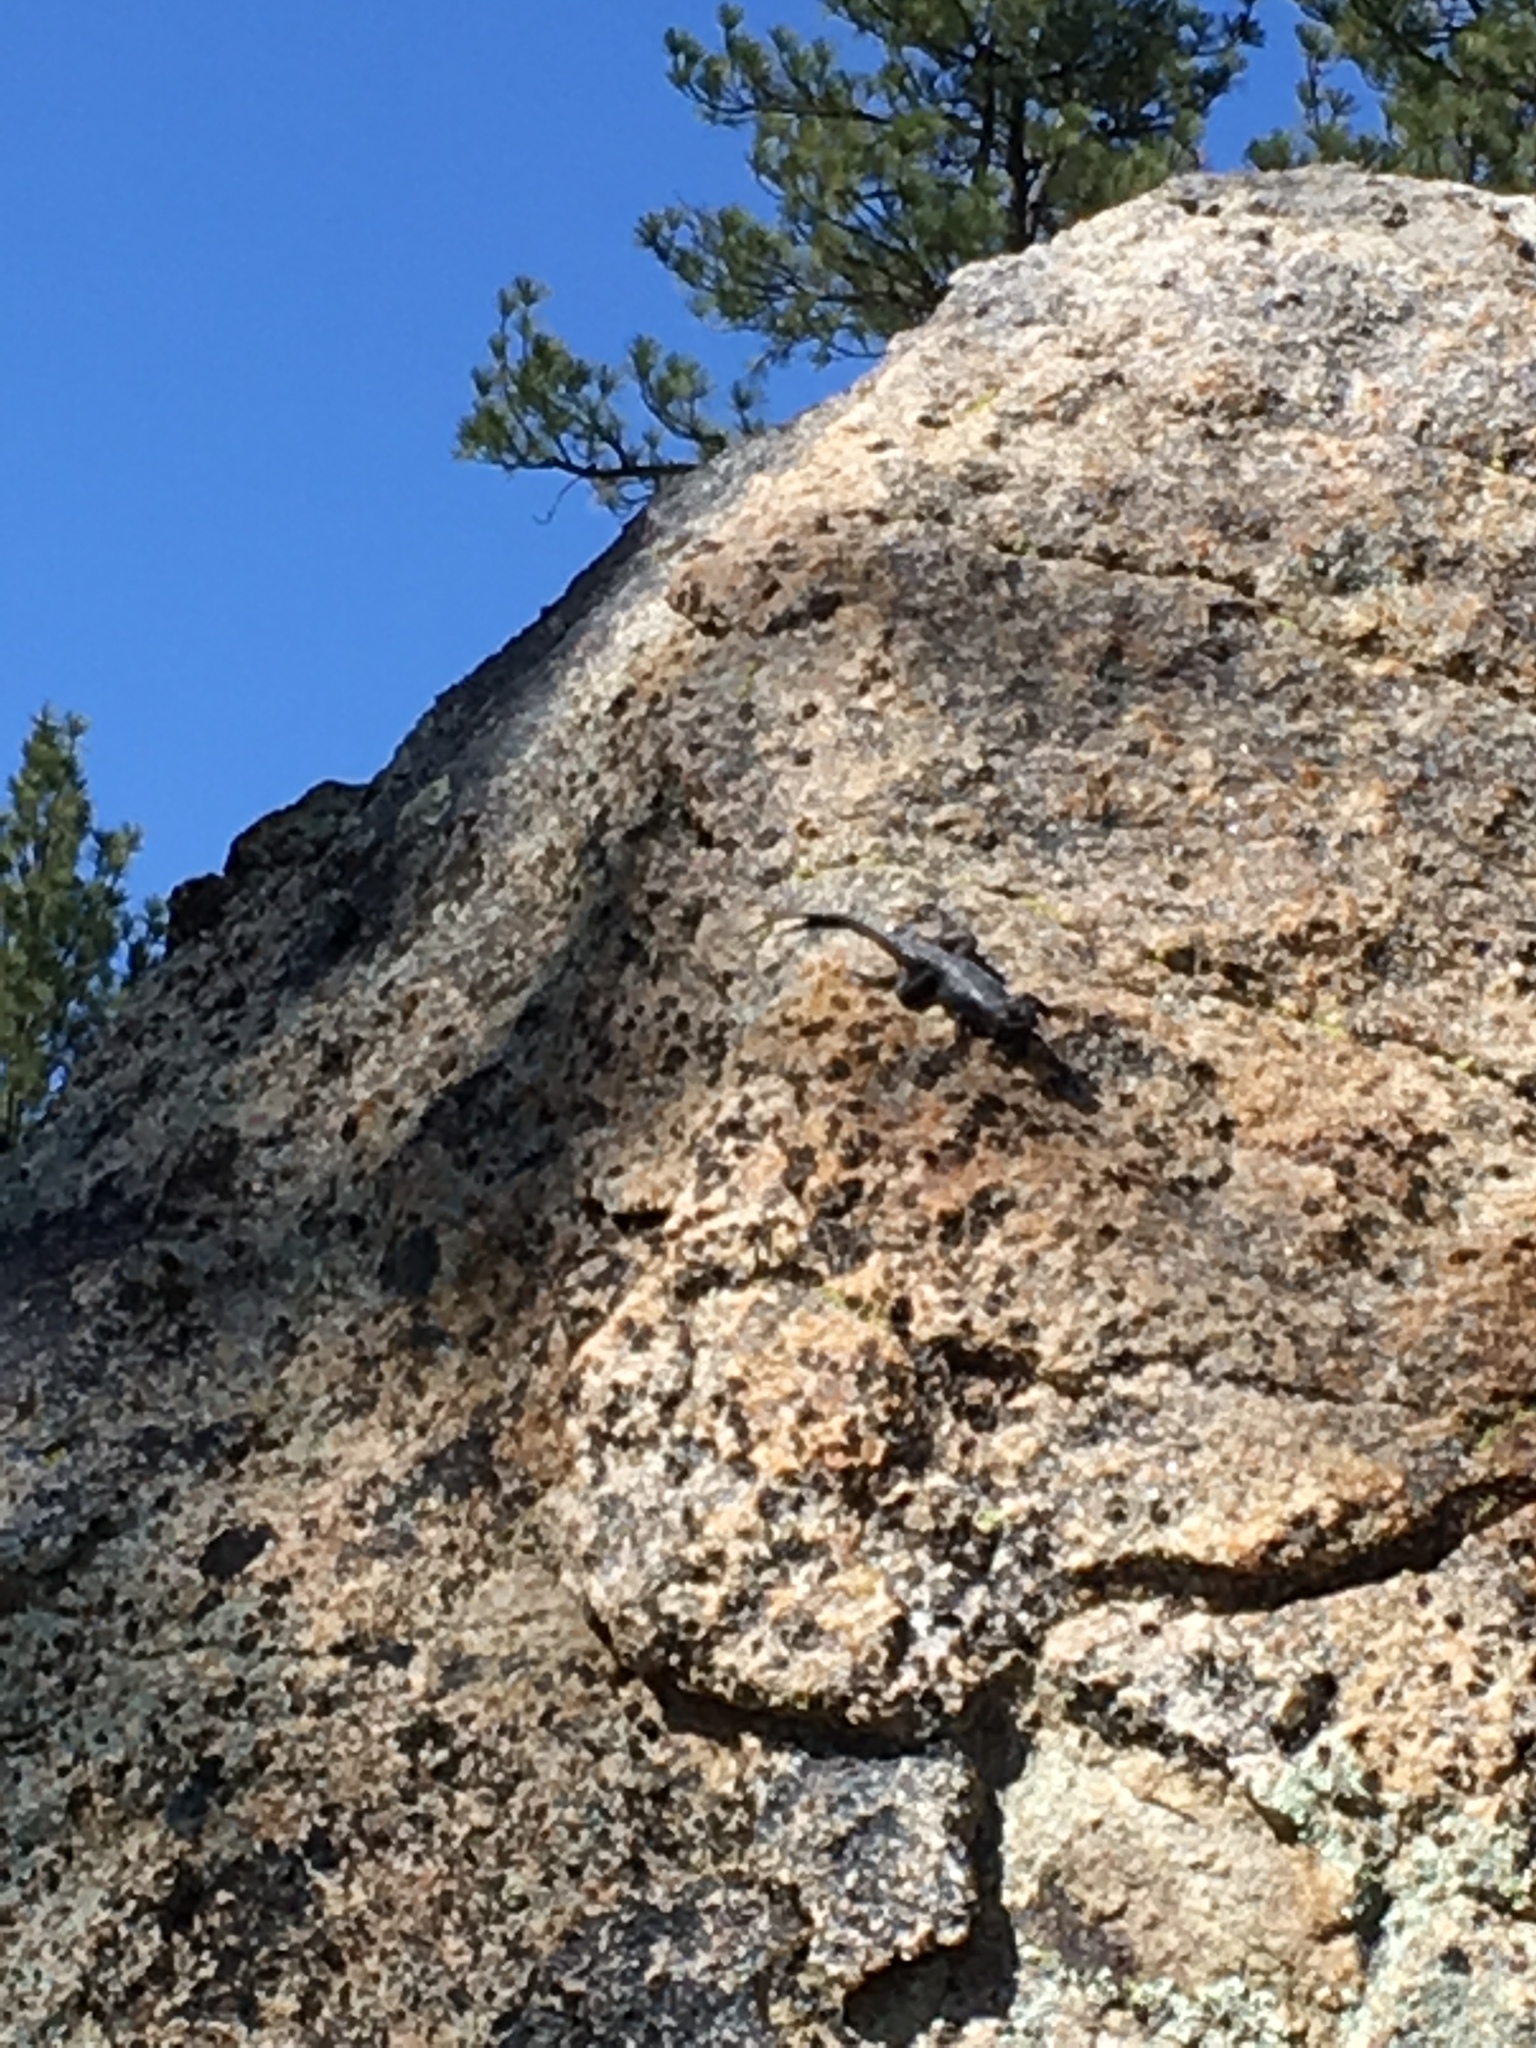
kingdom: Animalia
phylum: Chordata
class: Squamata
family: Phrynosomatidae
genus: Sceloporus
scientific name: Sceloporus occidentalis
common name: Western fence lizard
